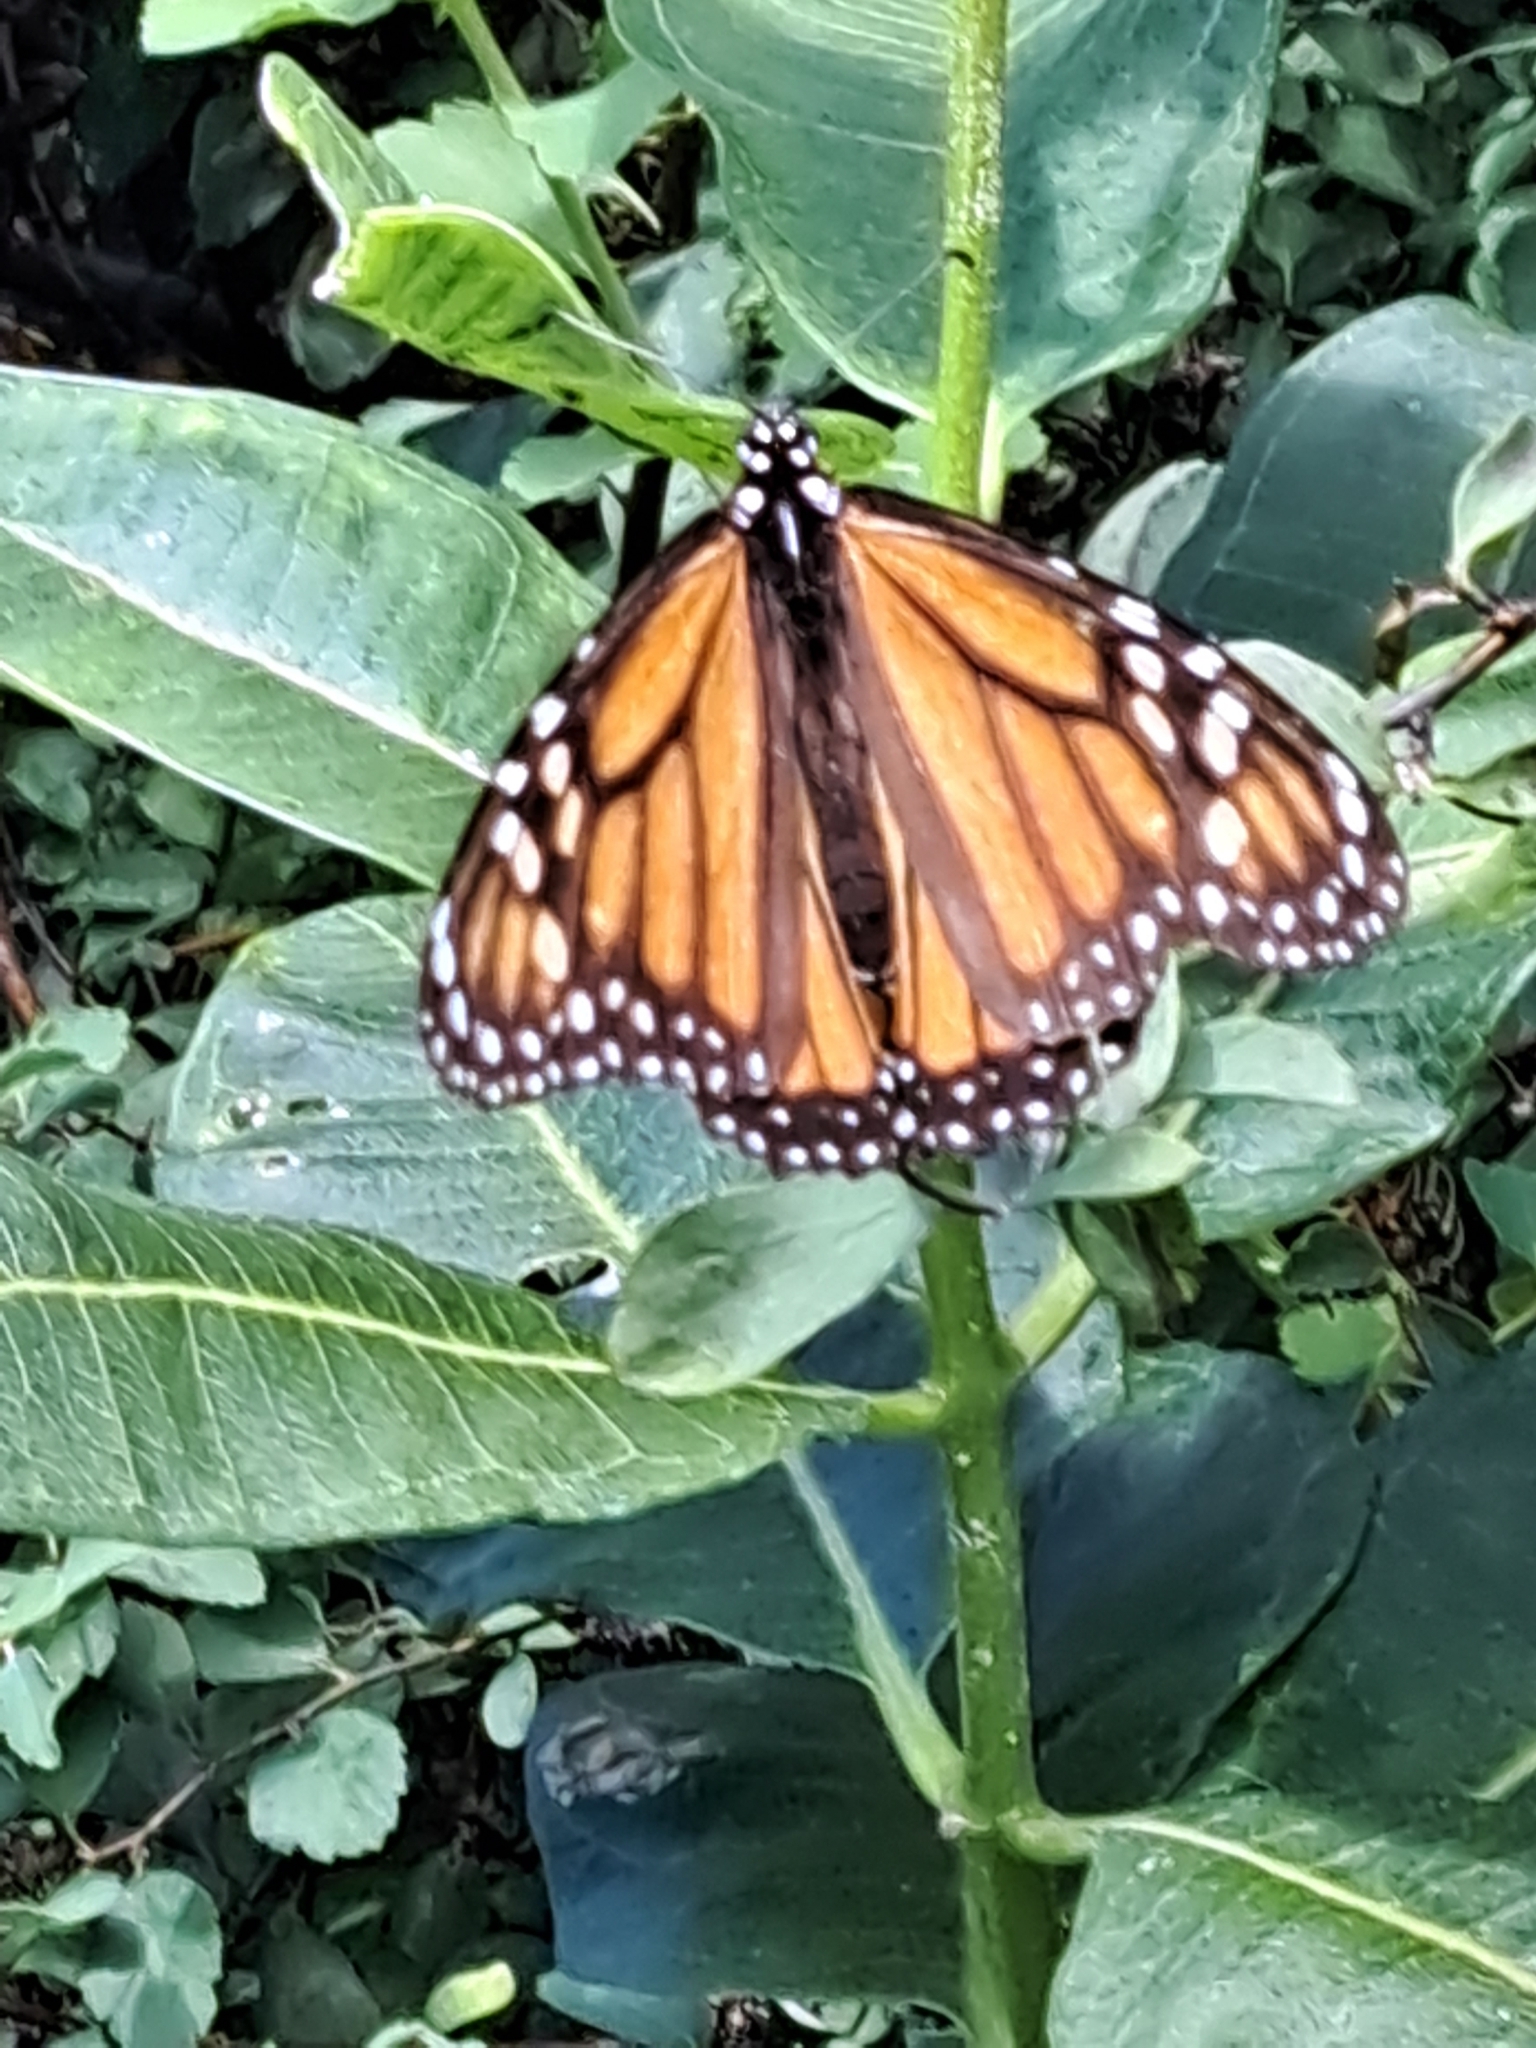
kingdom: Animalia
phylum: Arthropoda
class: Insecta
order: Lepidoptera
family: Nymphalidae
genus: Danaus
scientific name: Danaus plexippus
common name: Monarch
